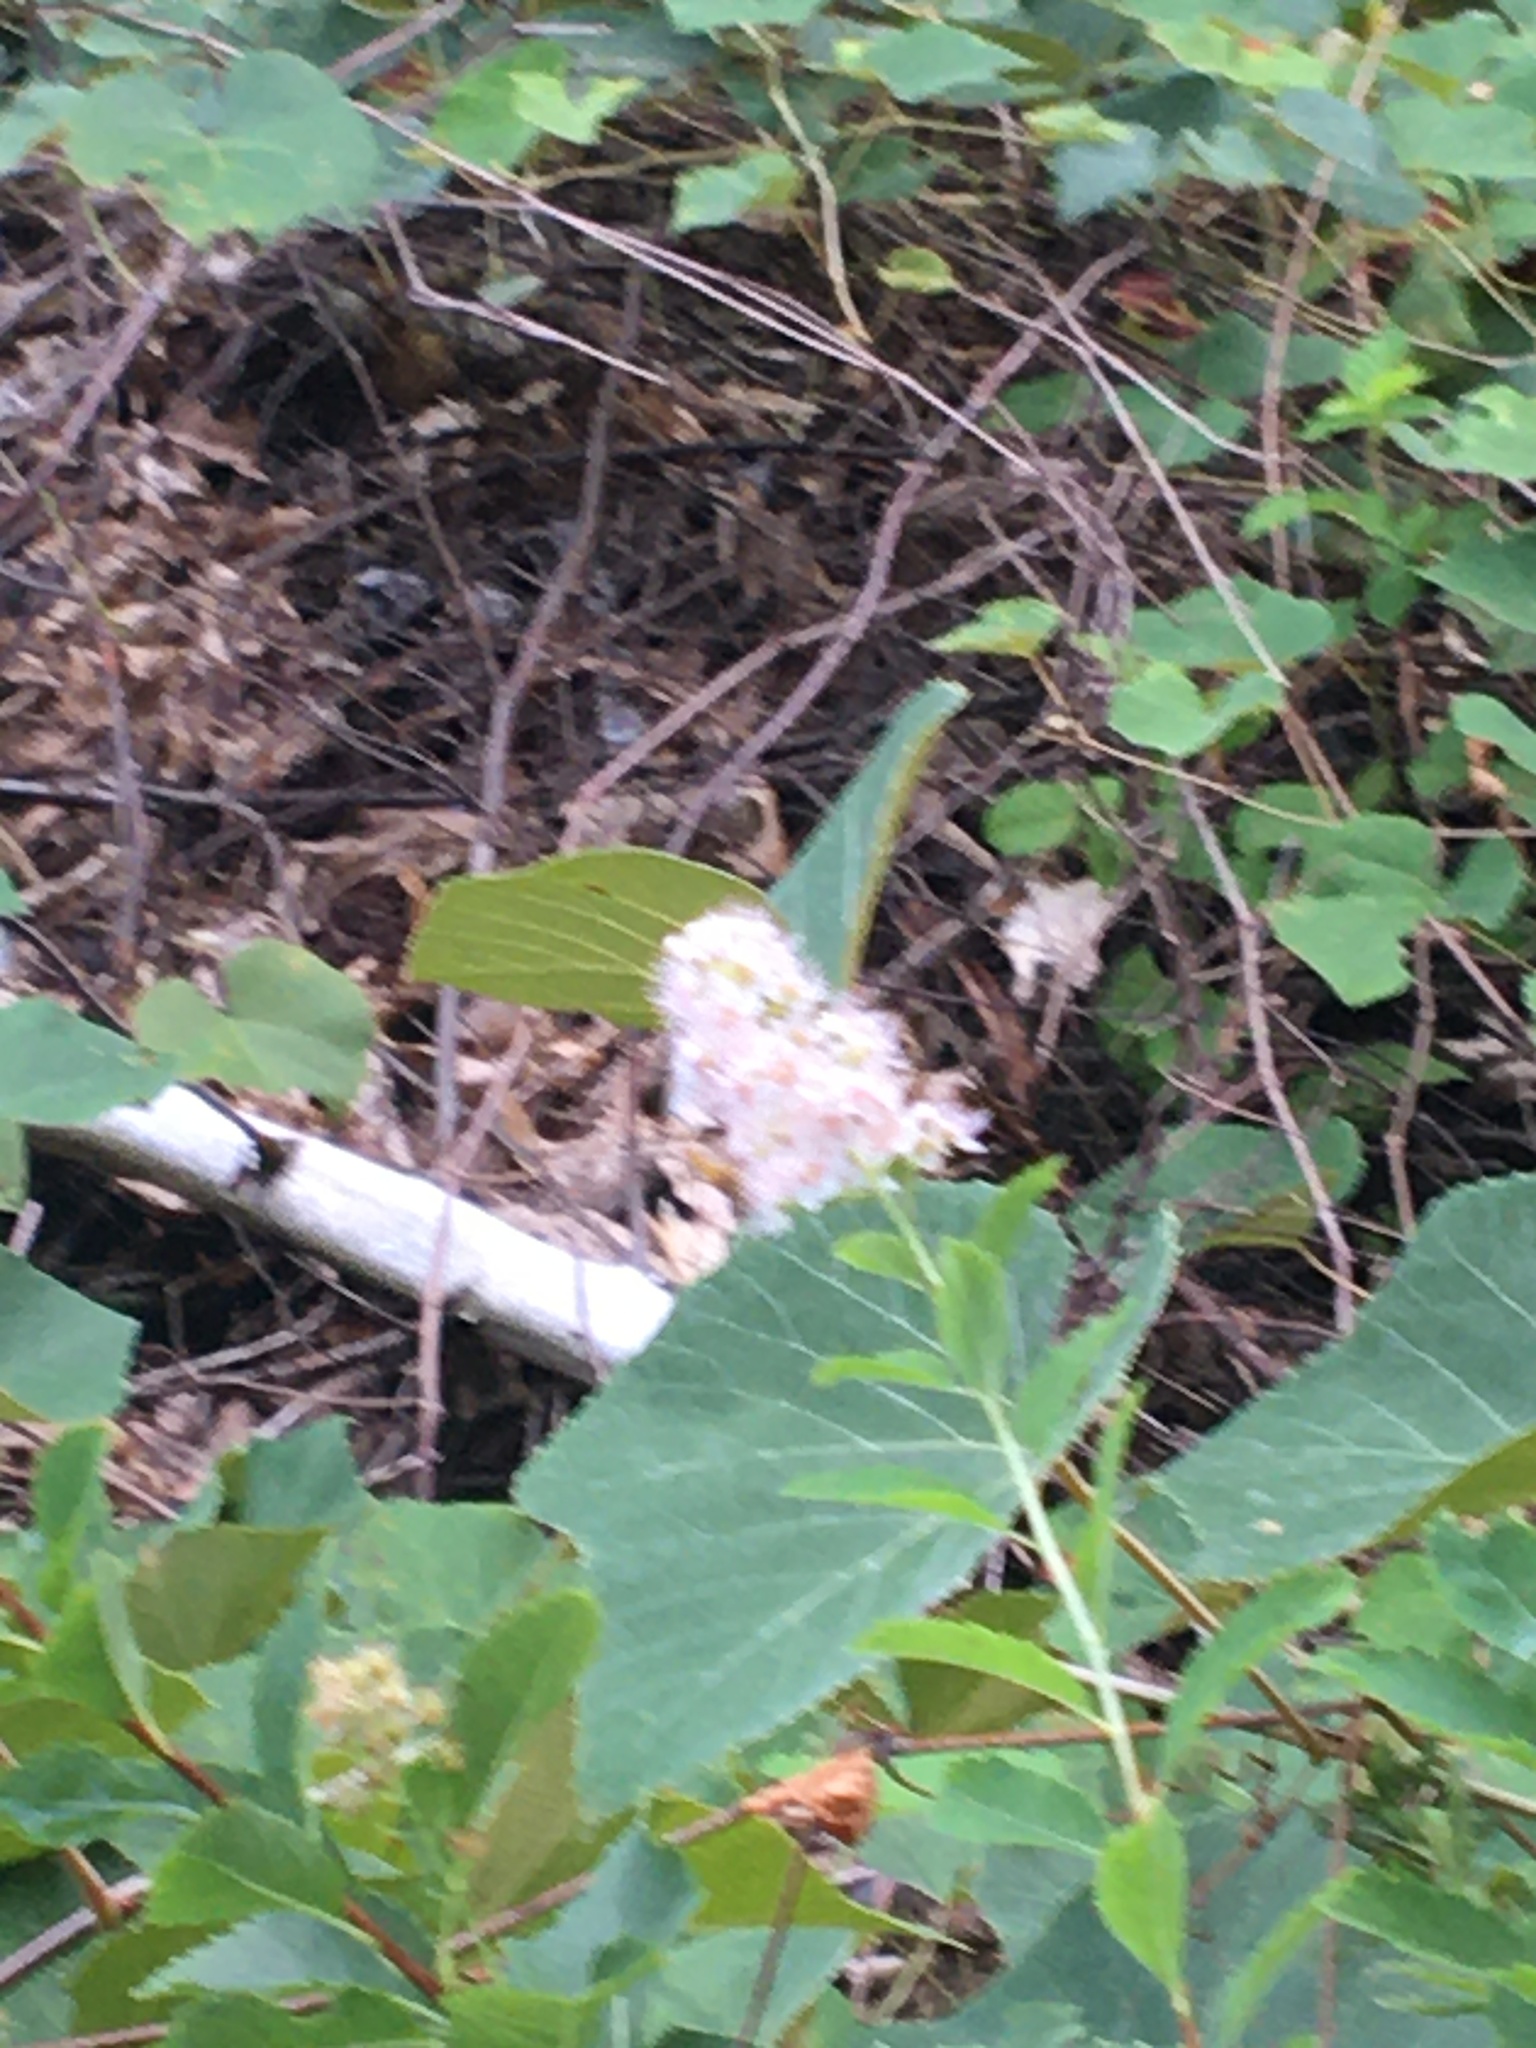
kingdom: Plantae
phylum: Tracheophyta
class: Magnoliopsida
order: Rosales
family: Rosaceae
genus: Spiraea
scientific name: Spiraea alba
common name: Pale bridewort
